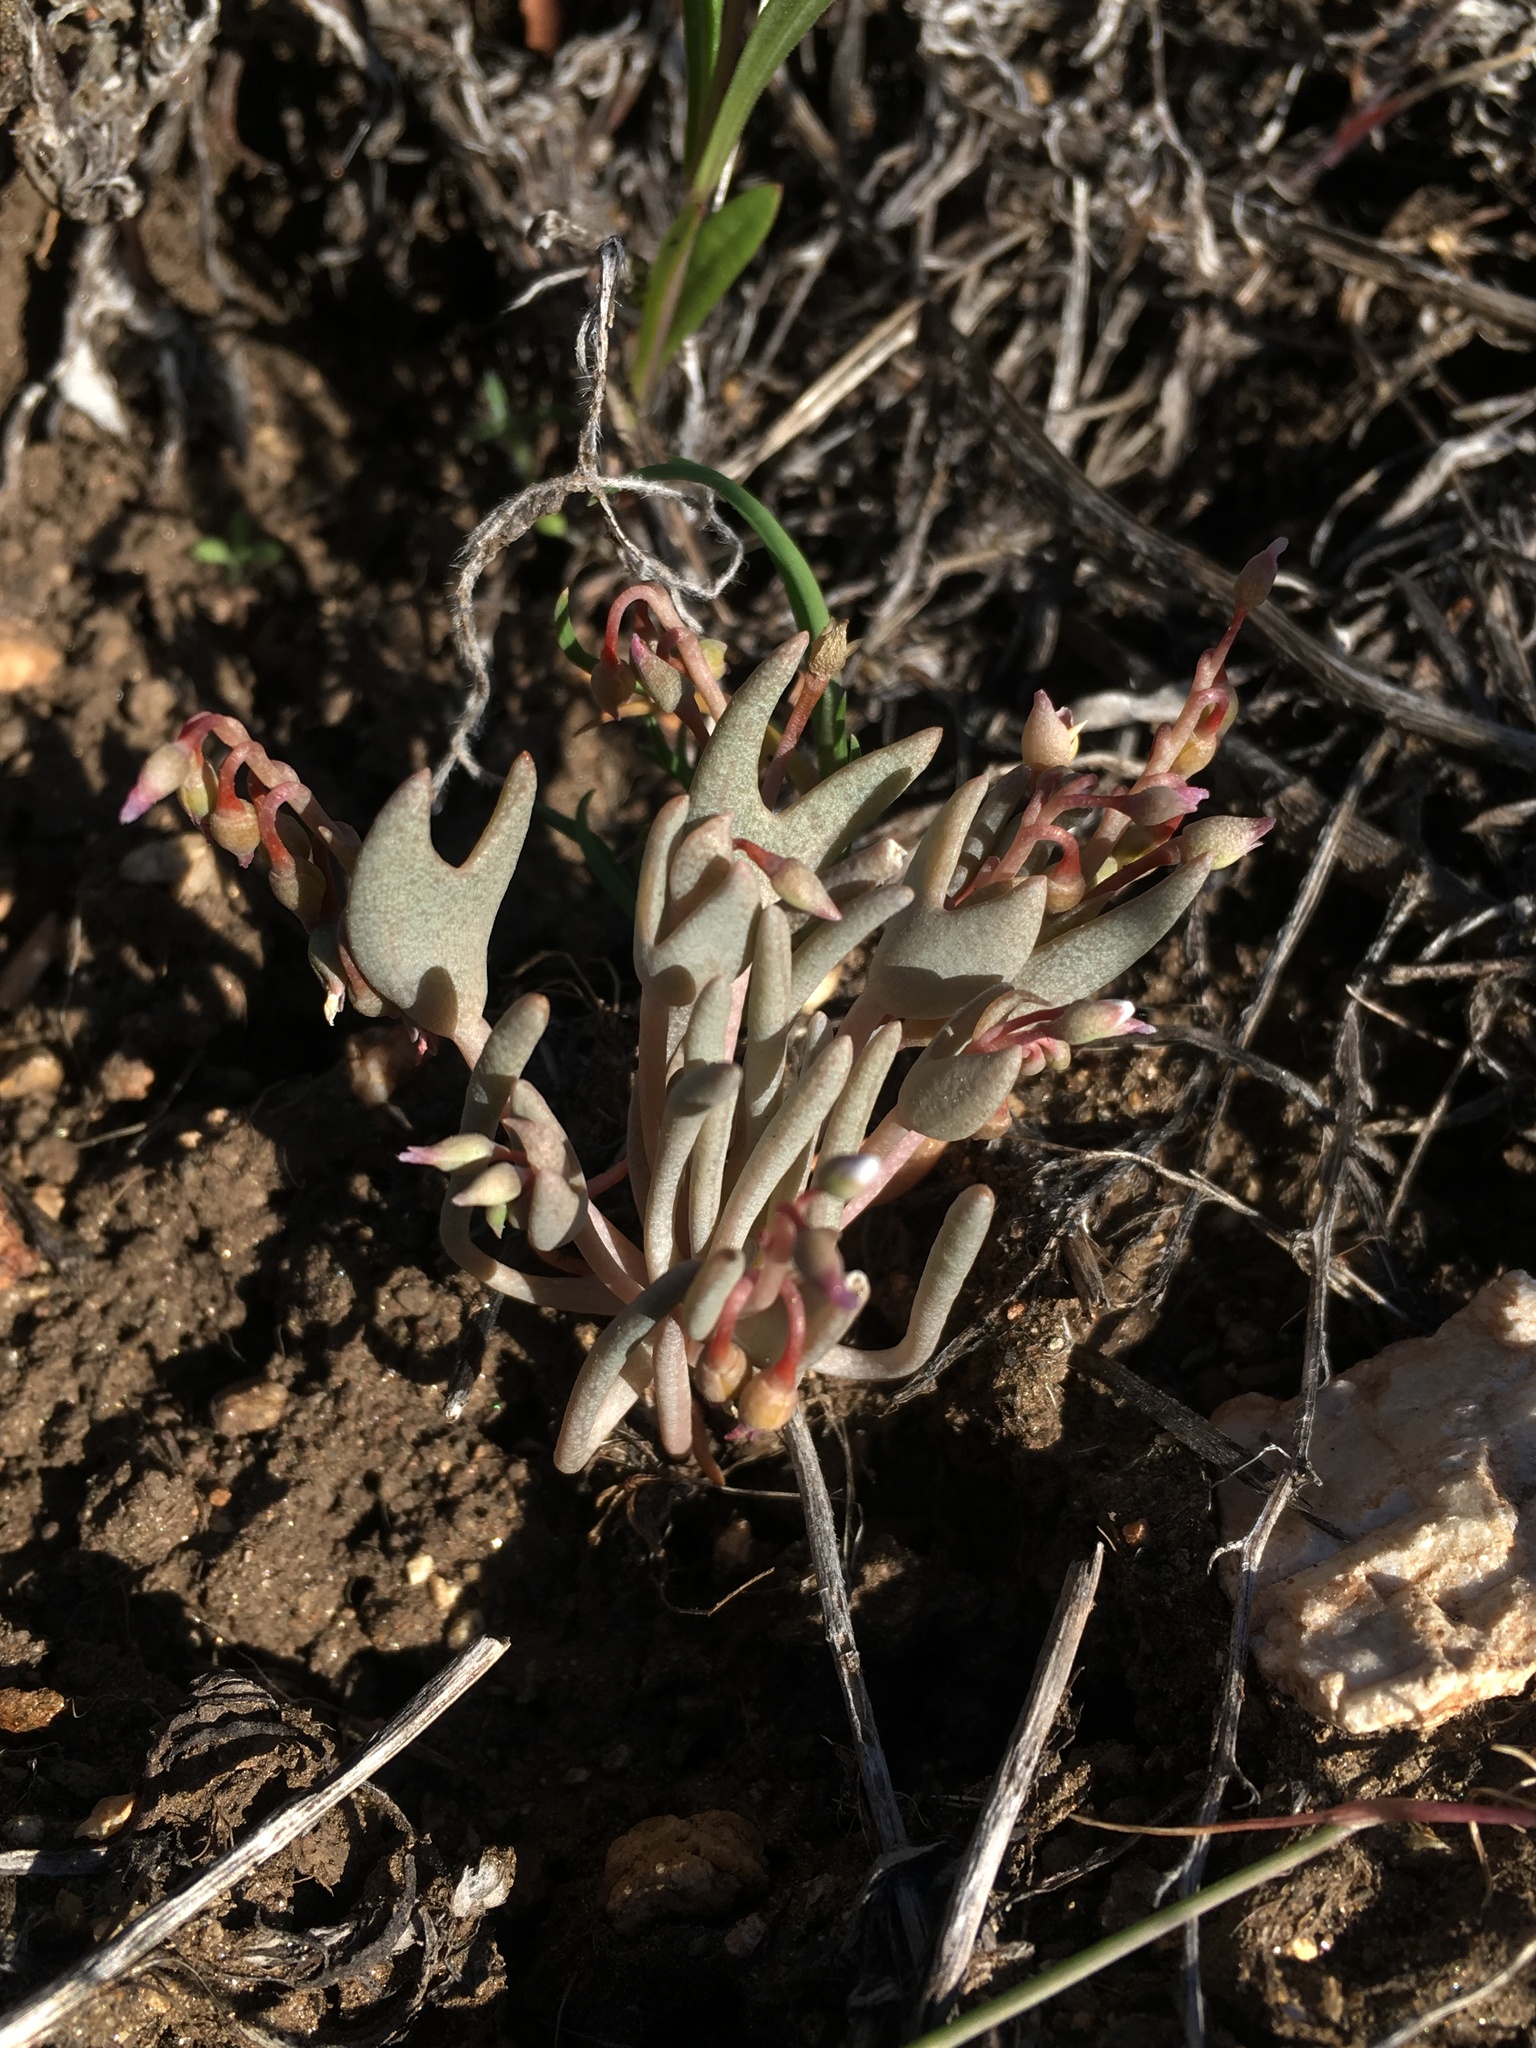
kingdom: Plantae
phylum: Tracheophyta
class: Magnoliopsida
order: Caryophyllales
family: Montiaceae
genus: Claytonia
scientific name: Claytonia exigua
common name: Pale spring beauty
